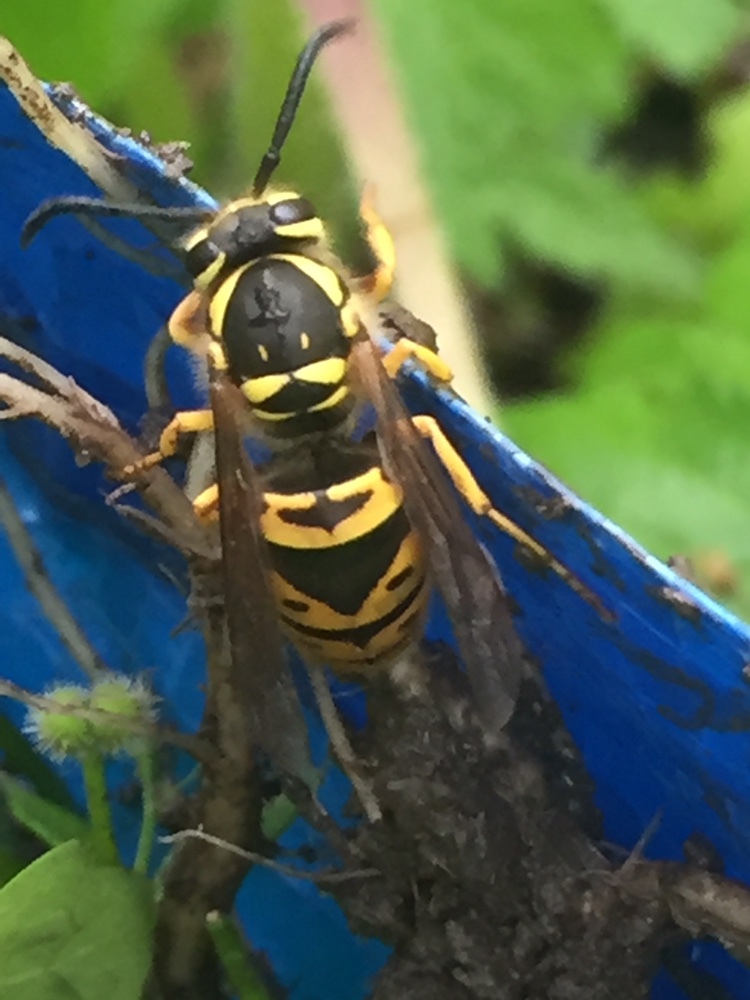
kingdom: Animalia
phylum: Arthropoda
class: Insecta
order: Hymenoptera
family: Vespidae
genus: Vespula
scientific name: Vespula maculifrons
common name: Eastern yellowjacket
